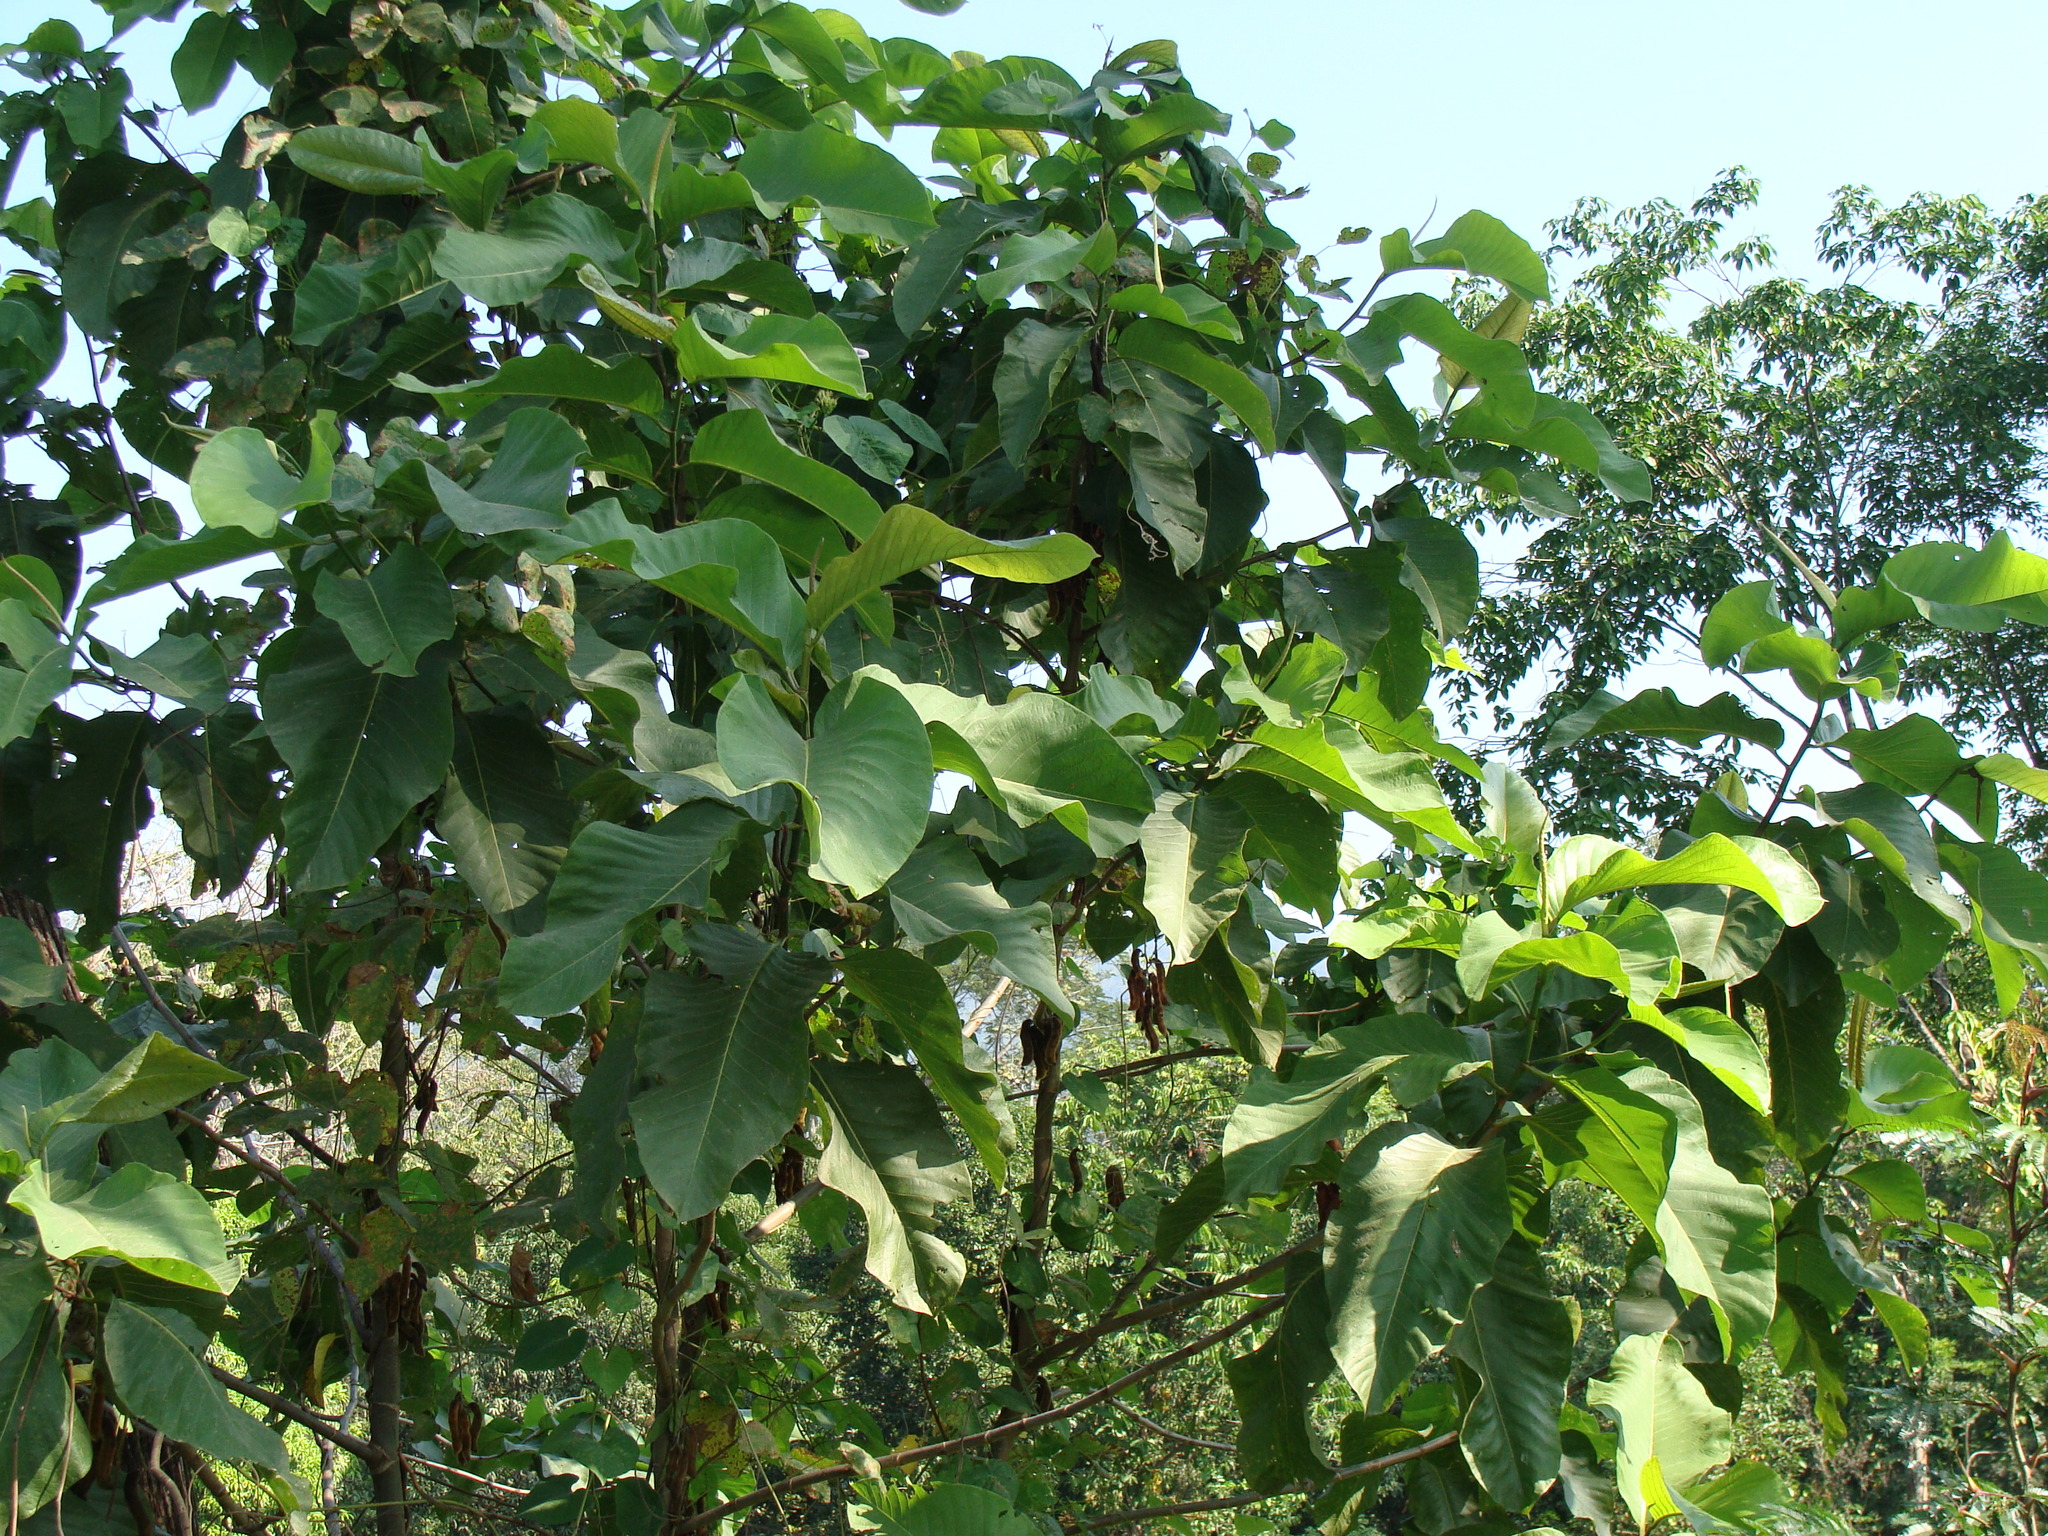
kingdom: Plantae
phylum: Tracheophyta
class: Magnoliopsida
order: Caryophyllales
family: Polygonaceae
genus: Triplaris
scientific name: Triplaris melaenodendron
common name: Long john
